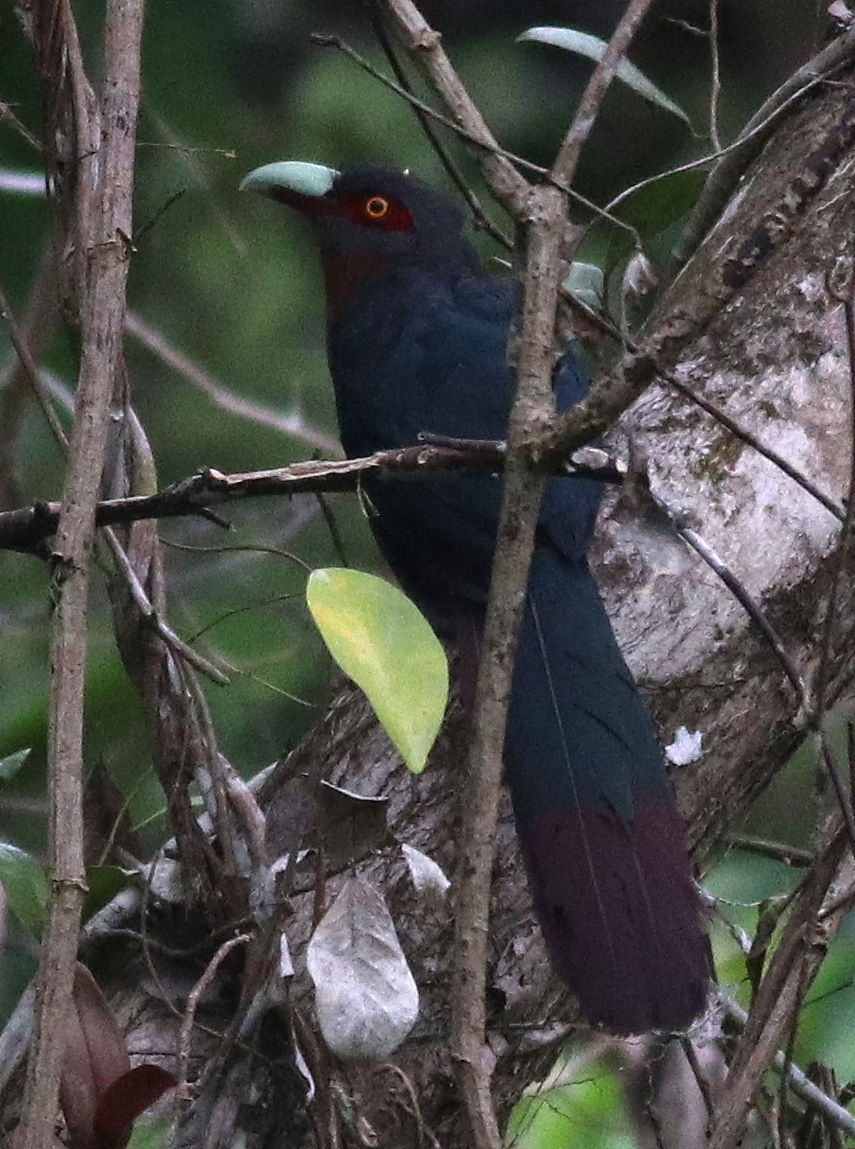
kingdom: Animalia
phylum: Chordata
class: Aves
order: Cuculiformes
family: Cuculidae
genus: Zanclostomus
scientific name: Zanclostomus curvirostris
